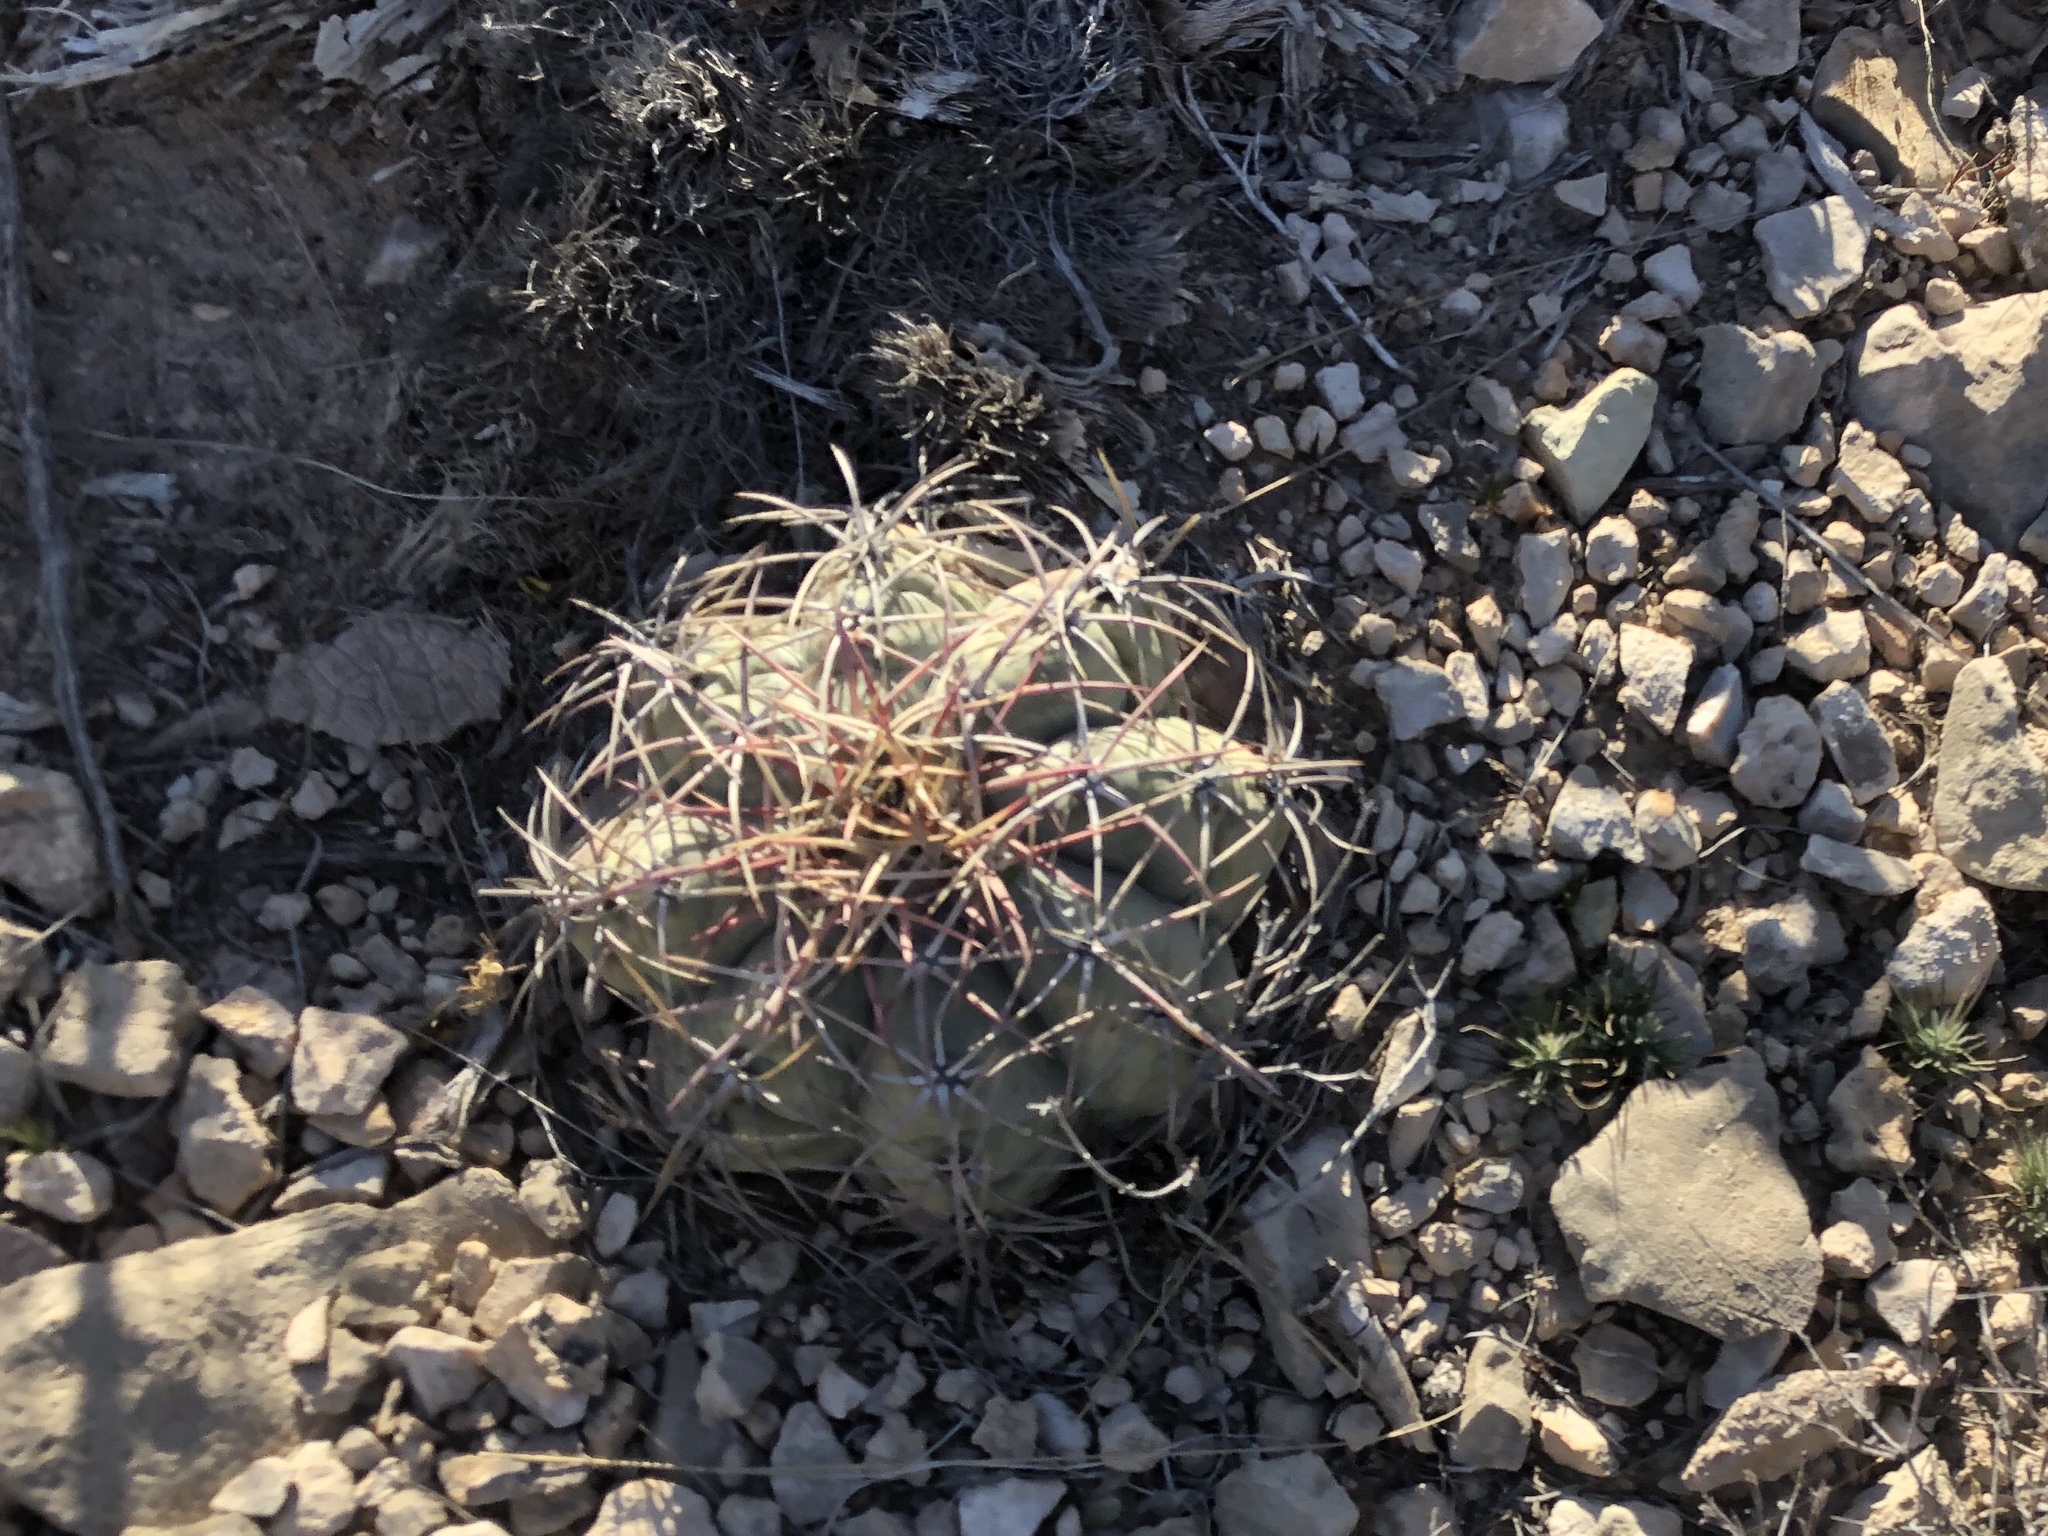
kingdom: Plantae
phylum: Tracheophyta
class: Magnoliopsida
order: Caryophyllales
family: Cactaceae
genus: Echinocactus
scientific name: Echinocactus horizonthalonius
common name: Devilshead
